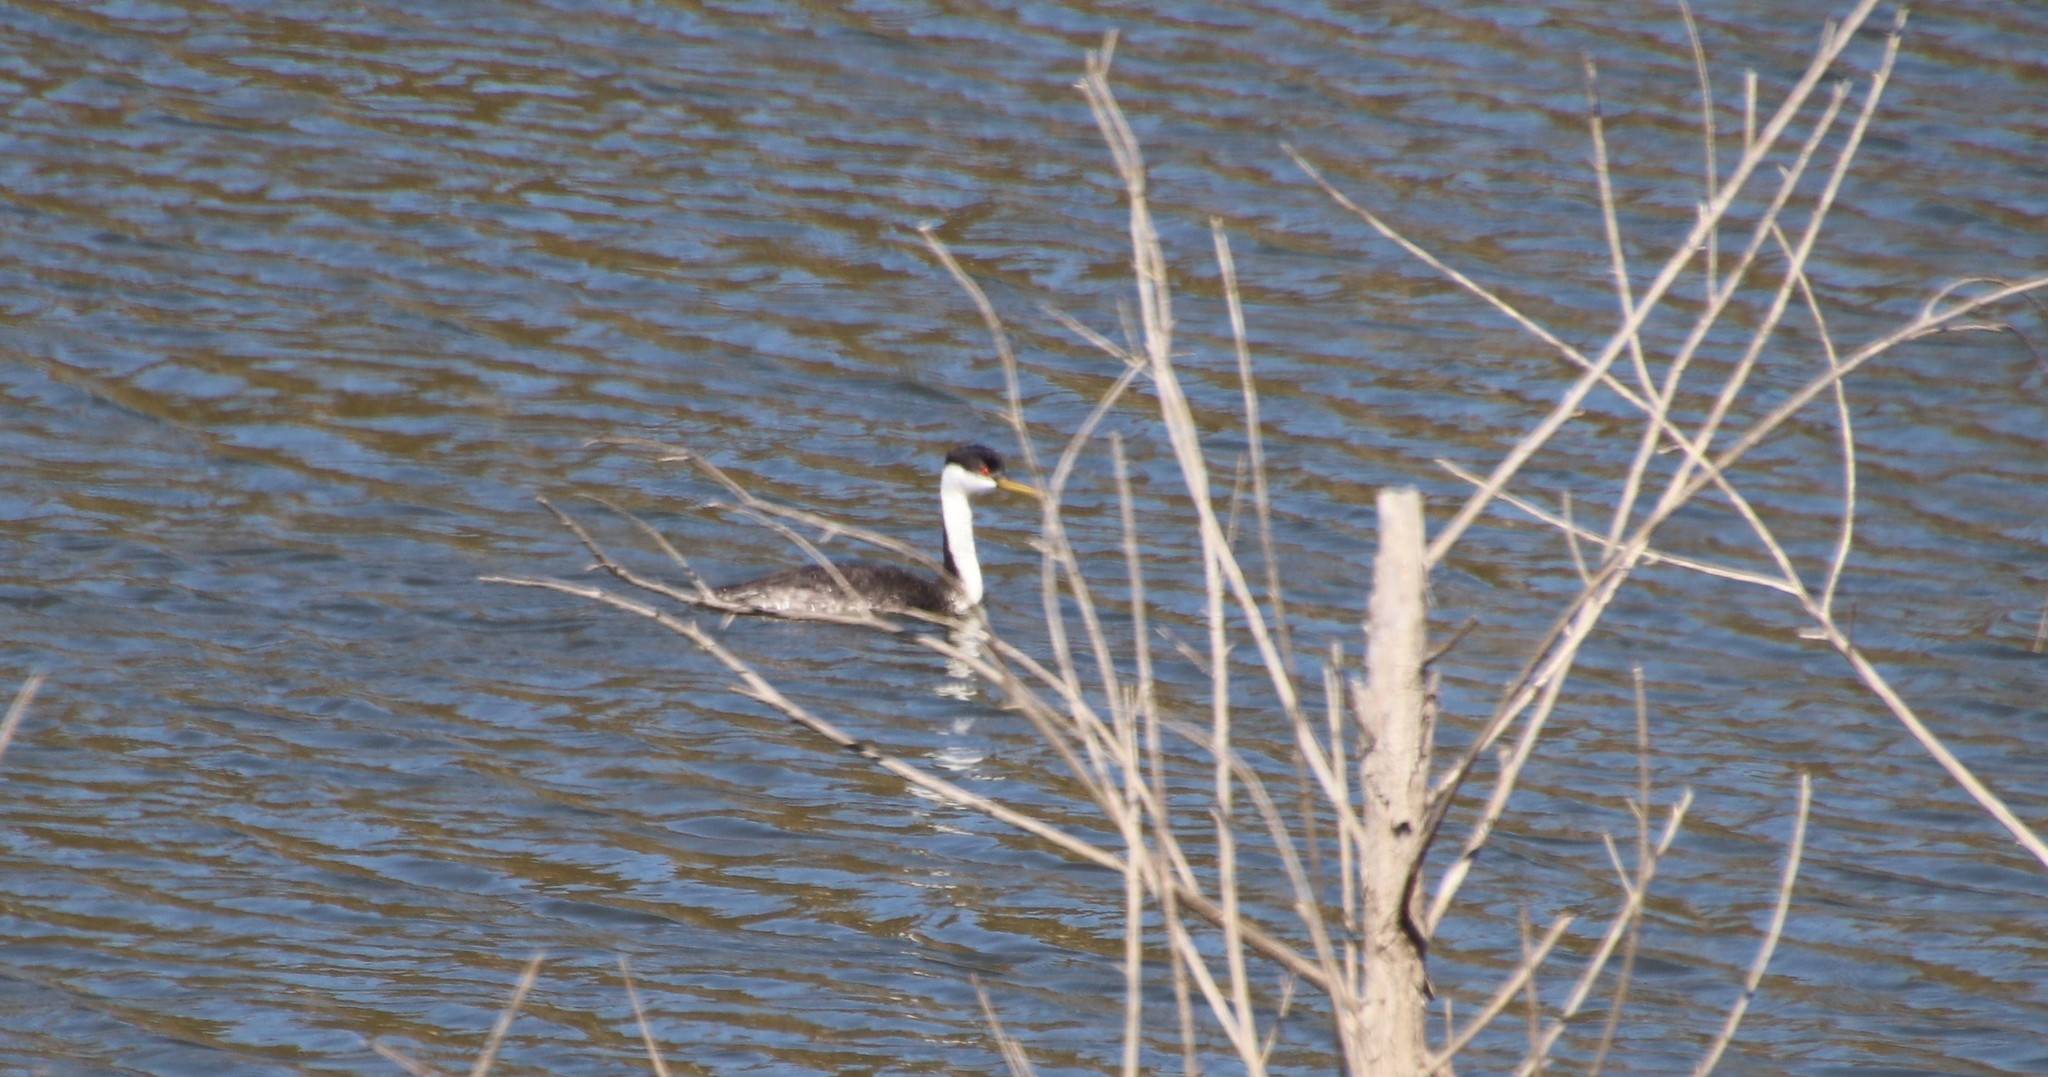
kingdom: Animalia
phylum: Chordata
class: Aves
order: Podicipediformes
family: Podicipedidae
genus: Aechmophorus
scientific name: Aechmophorus occidentalis
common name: Western grebe
